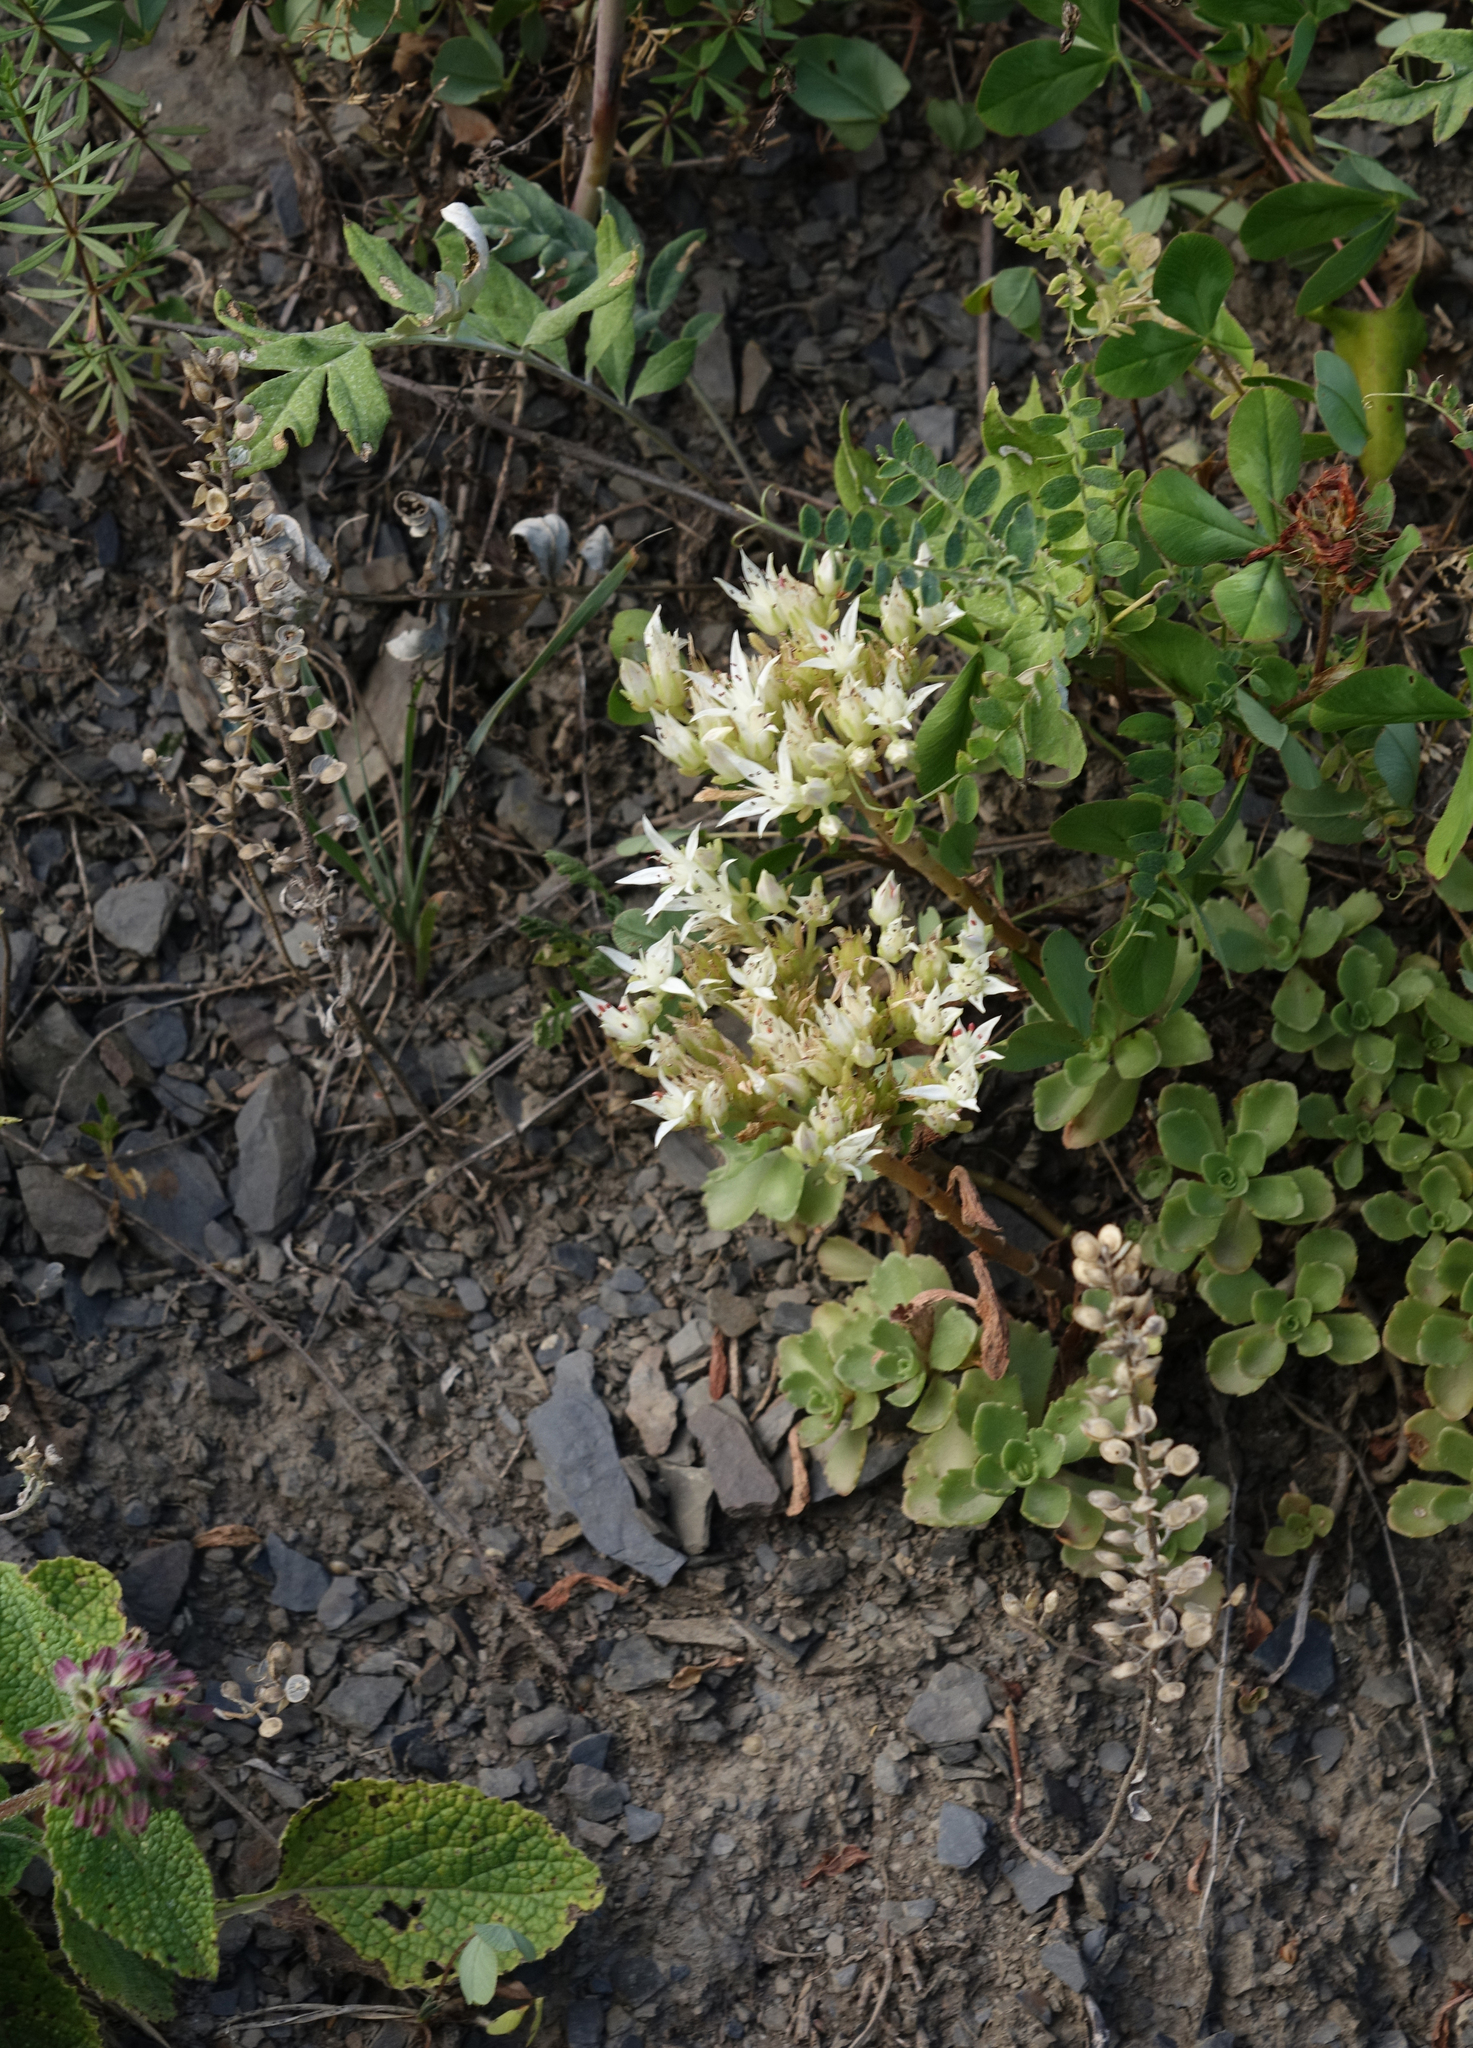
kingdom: Plantae
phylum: Tracheophyta
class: Magnoliopsida
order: Saxifragales
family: Crassulaceae
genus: Phedimus
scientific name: Phedimus spurius
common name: Caucasian stonecrop
